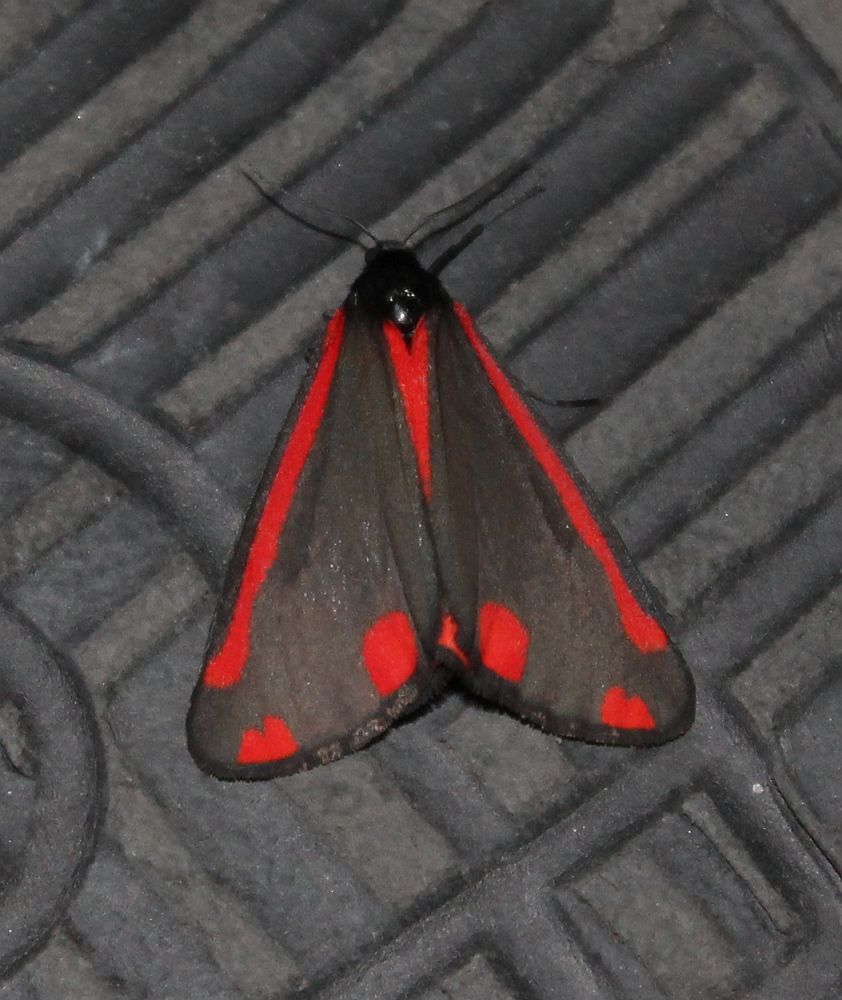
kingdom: Animalia
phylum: Arthropoda
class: Insecta
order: Lepidoptera
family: Erebidae
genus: Tyria
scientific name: Tyria jacobaeae
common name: Cinnabar
